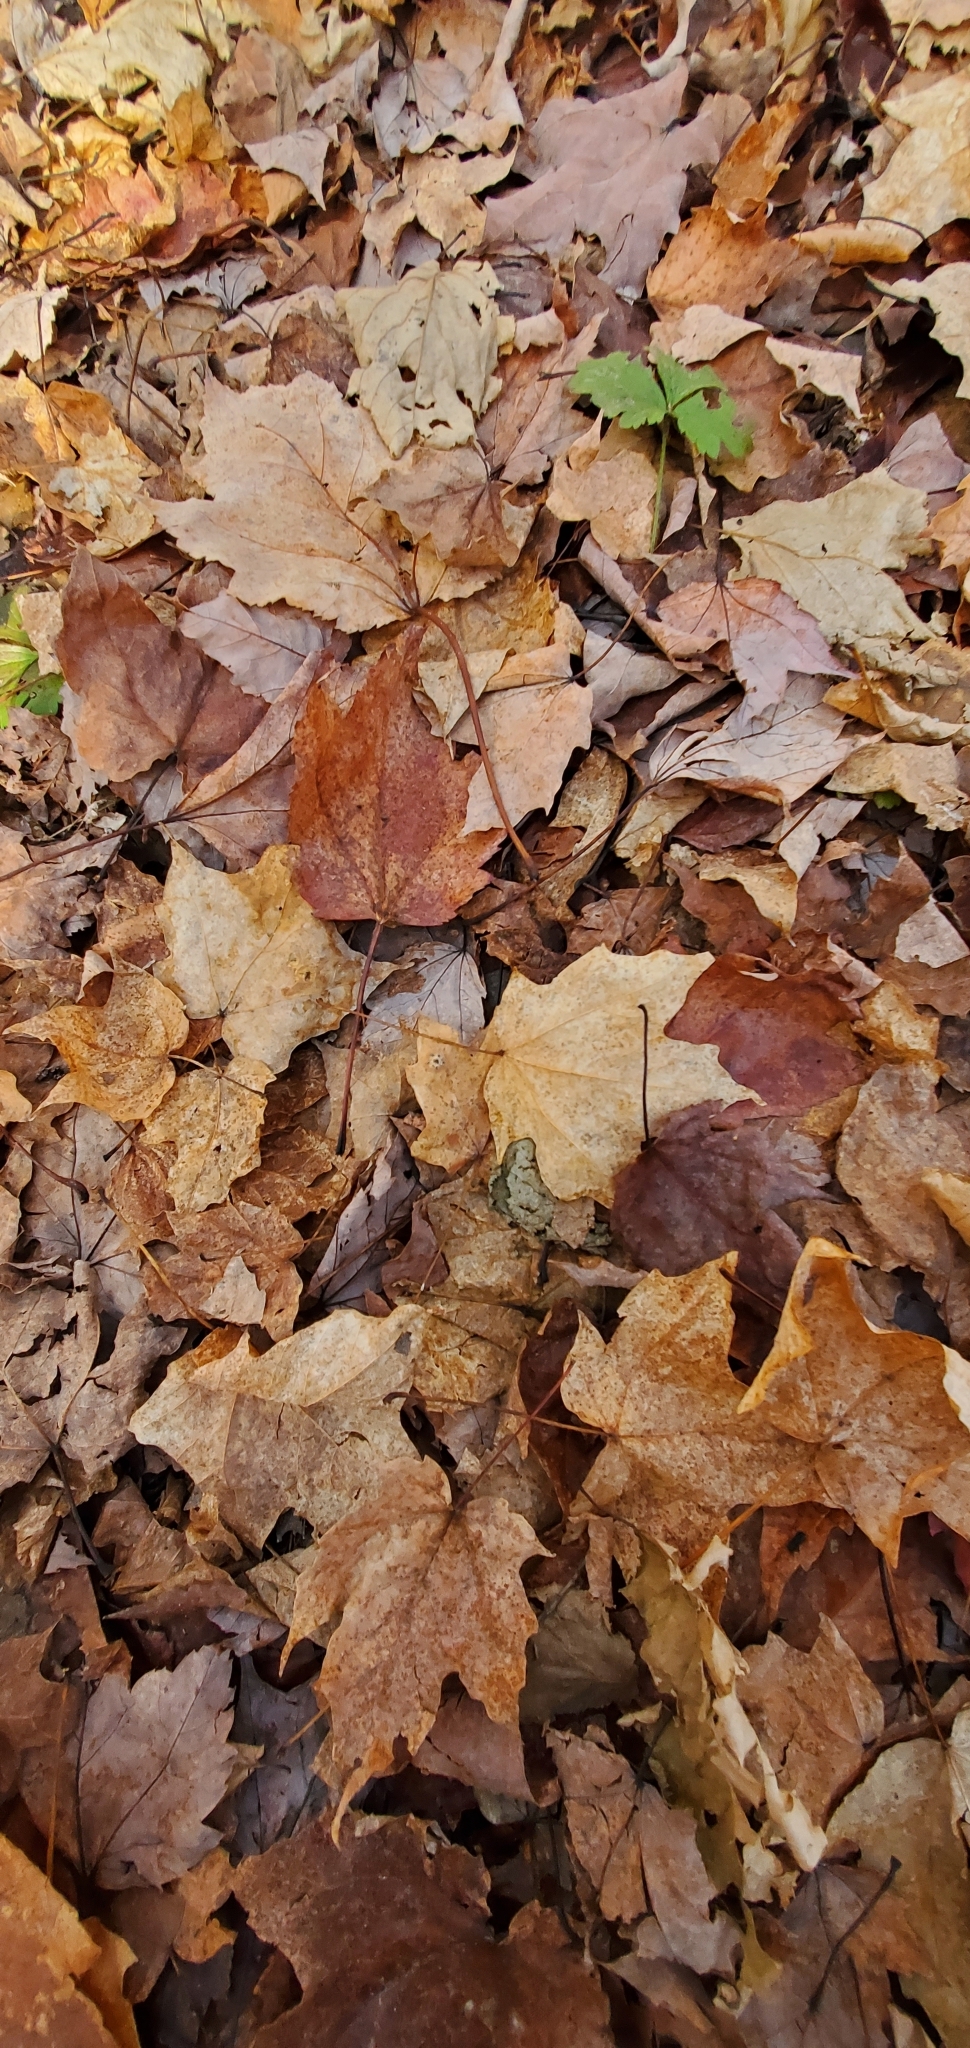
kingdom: Plantae
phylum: Tracheophyta
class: Magnoliopsida
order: Sapindales
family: Sapindaceae
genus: Acer
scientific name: Acer saccharum
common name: Sugar maple
